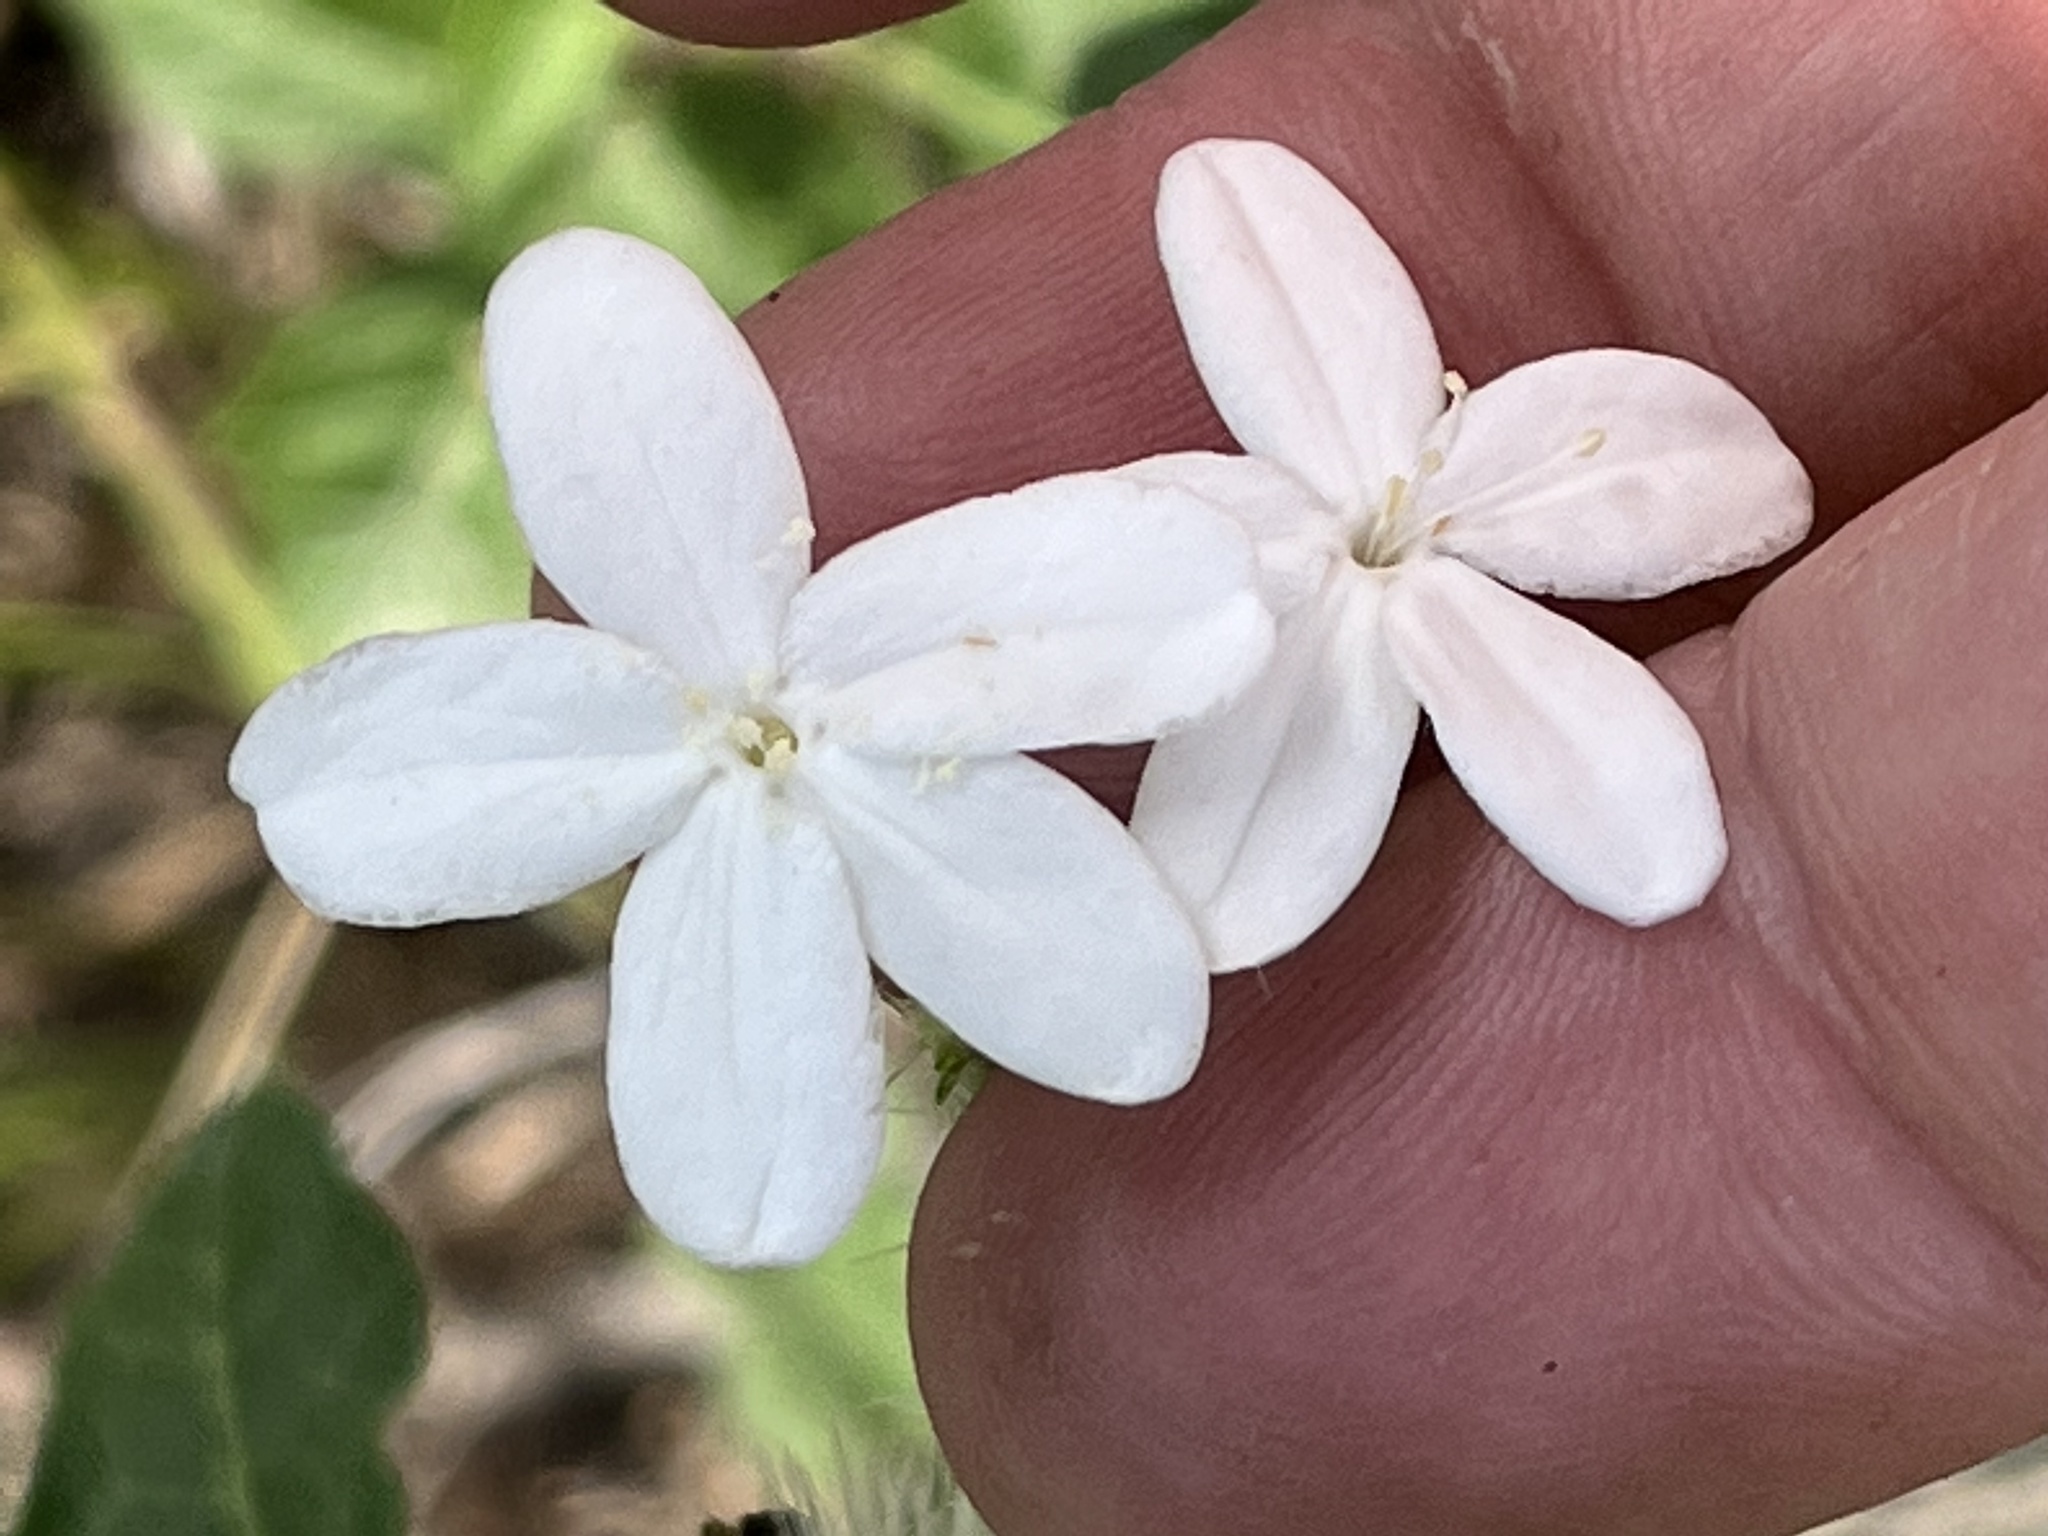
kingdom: Plantae
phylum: Tracheophyta
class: Magnoliopsida
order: Malpighiales
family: Euphorbiaceae
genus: Cnidoscolus
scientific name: Cnidoscolus stimulosus
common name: Bull-nettle
